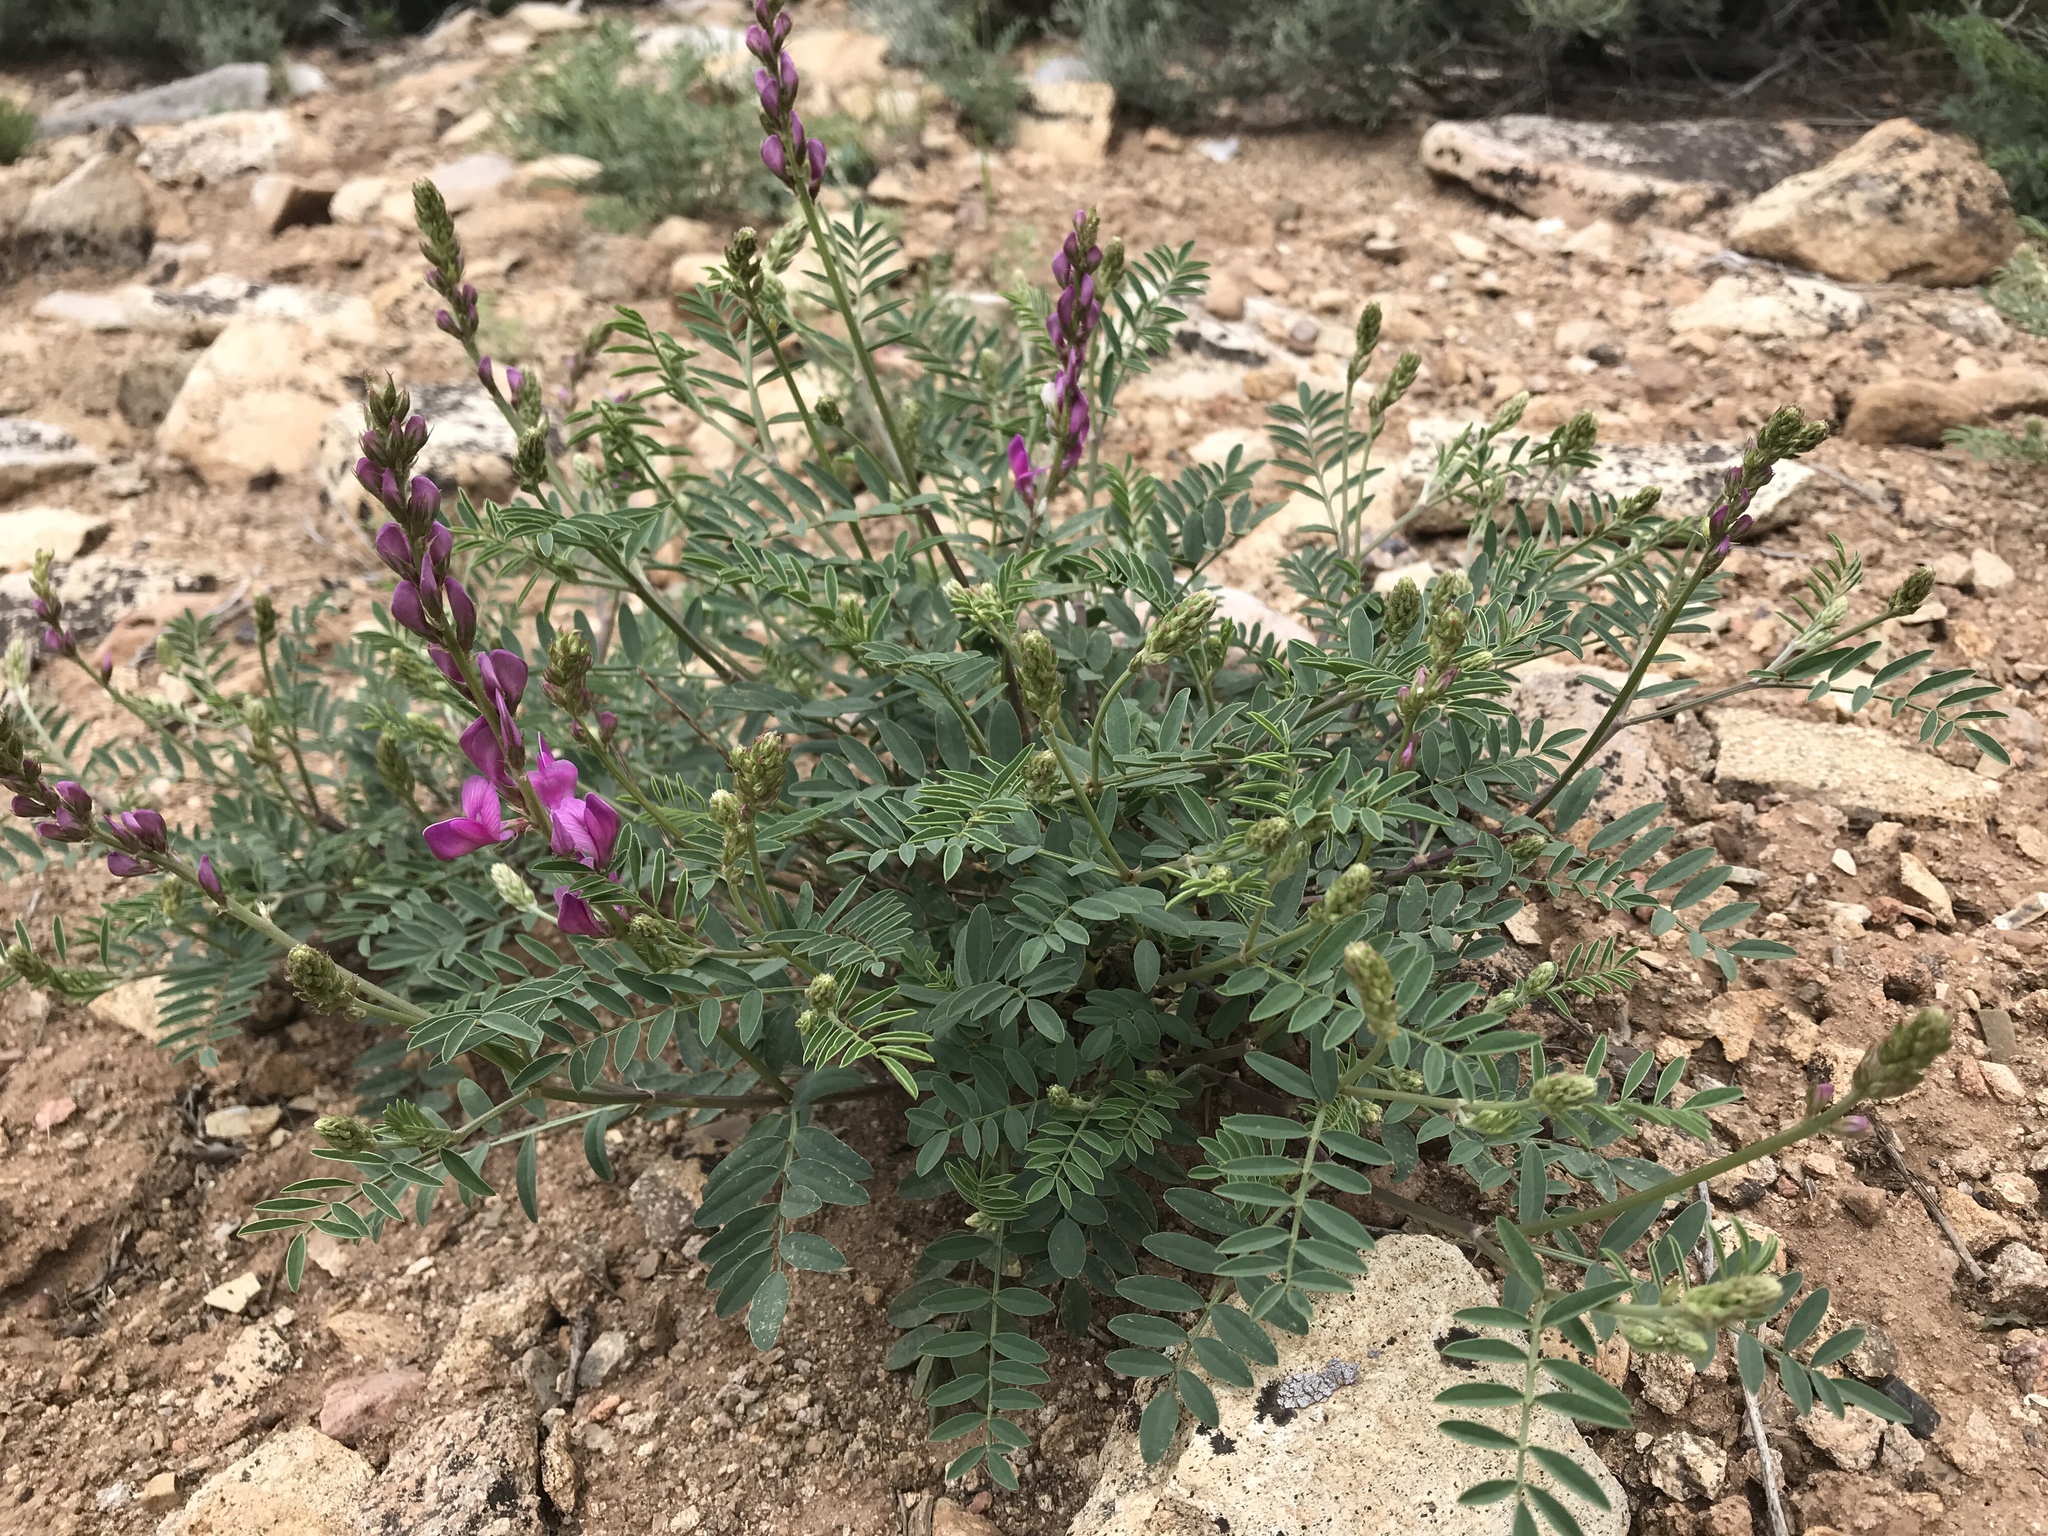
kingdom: Plantae
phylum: Tracheophyta
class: Magnoliopsida
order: Fabales
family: Fabaceae
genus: Hedysarum
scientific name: Hedysarum boreale
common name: Northern sweet-vetch
